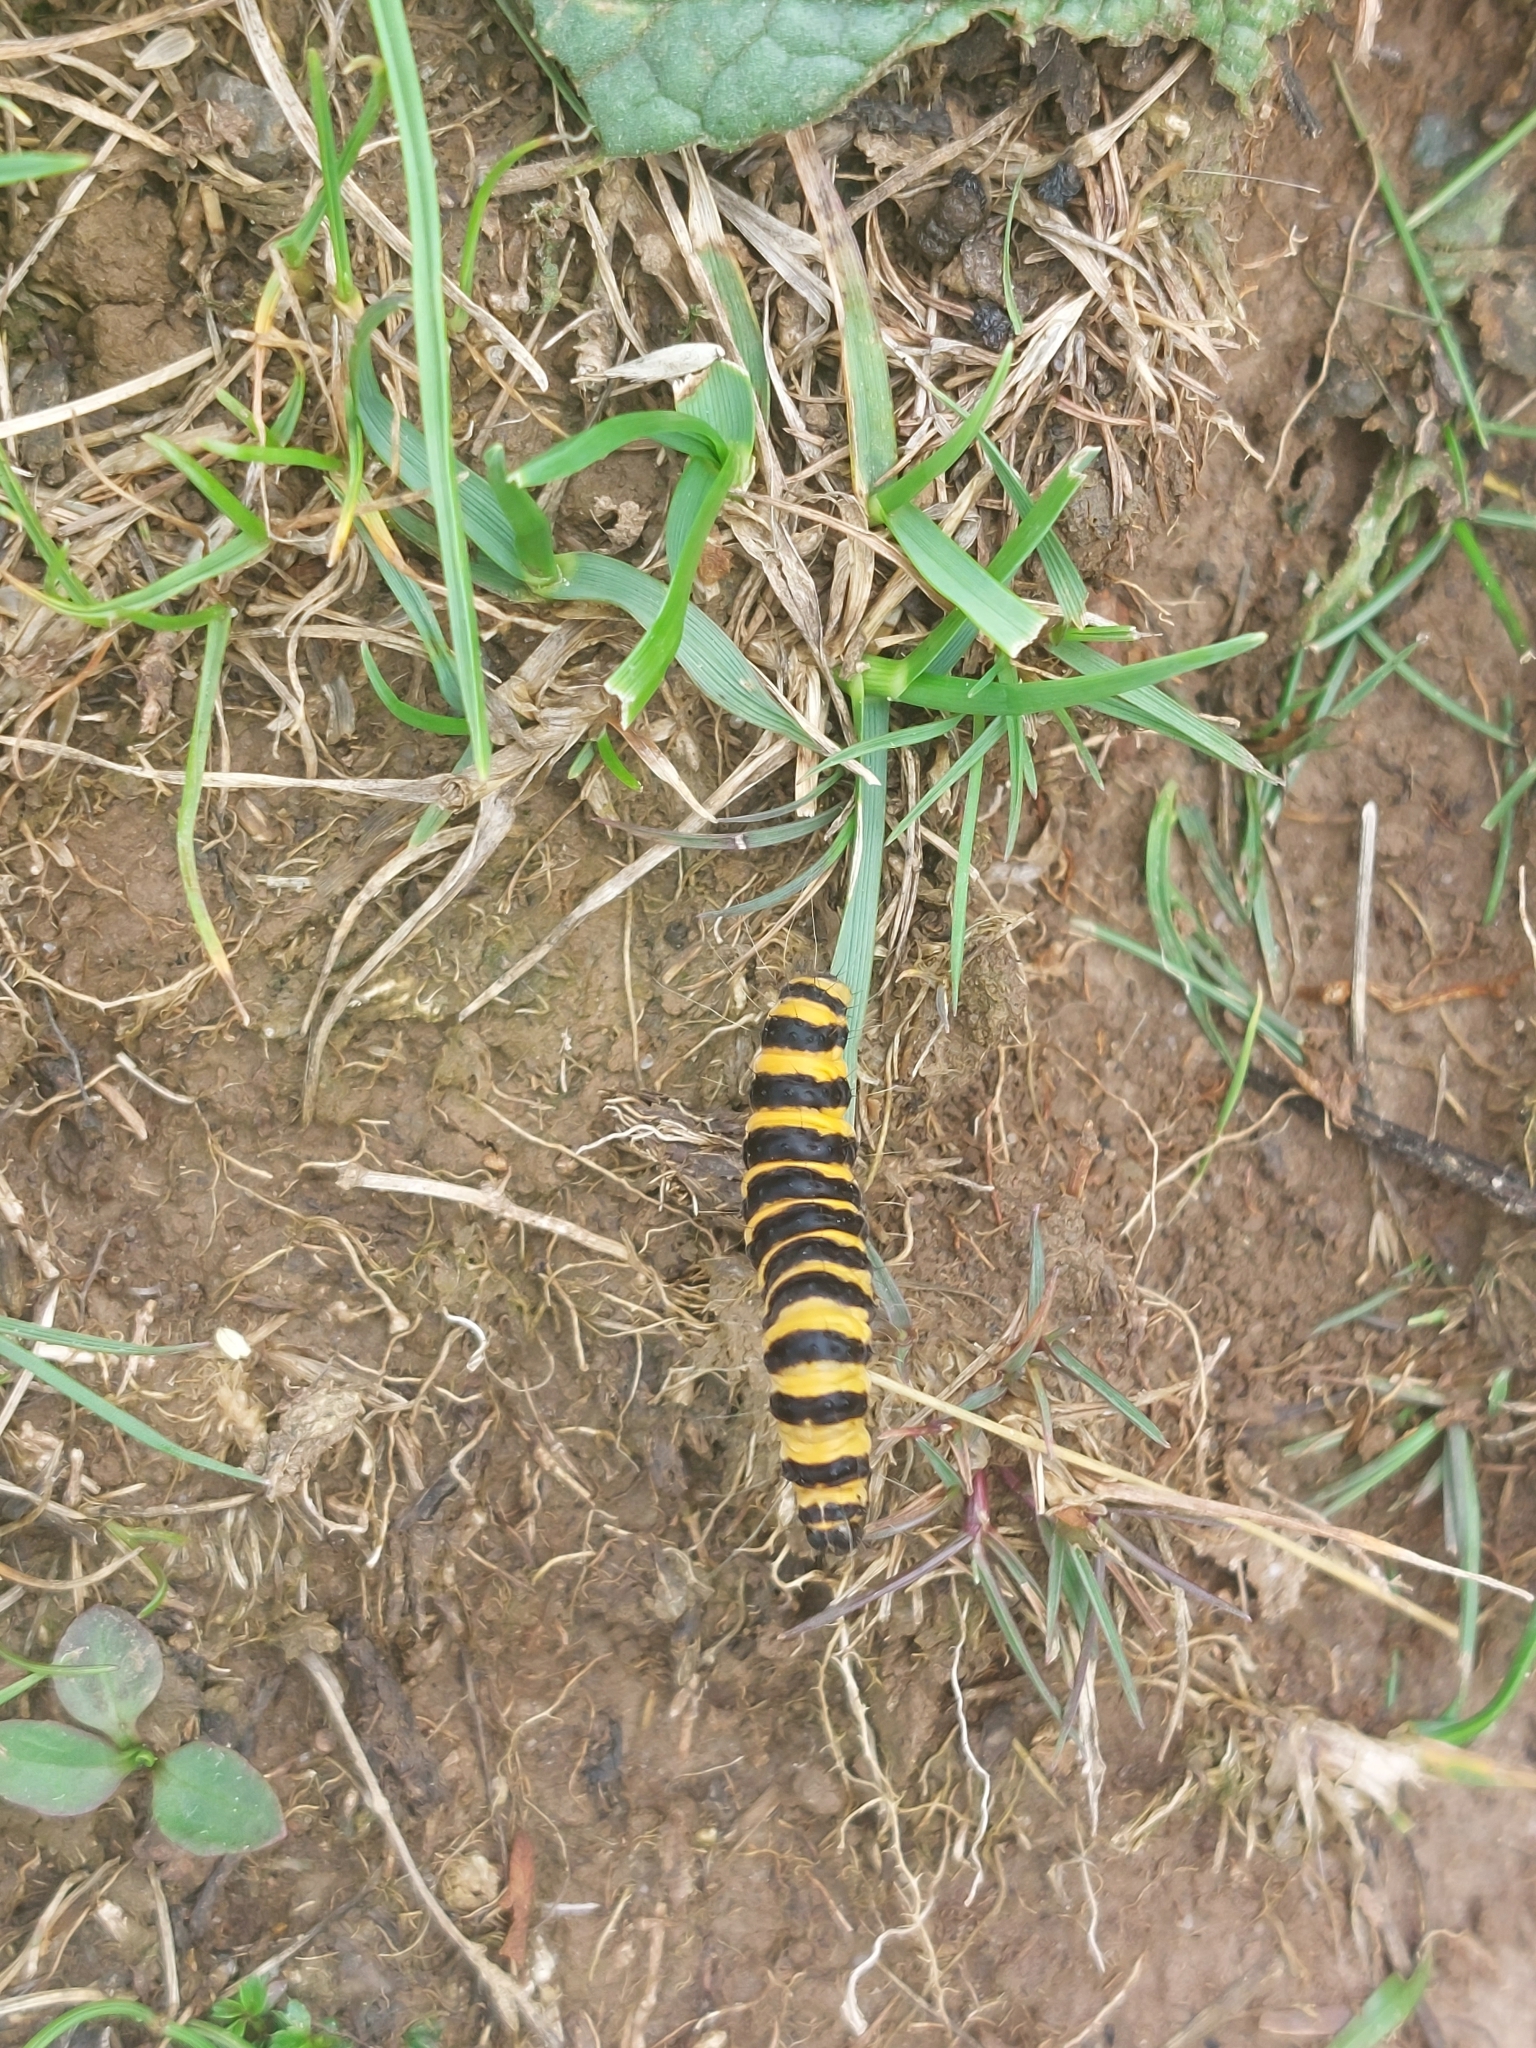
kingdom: Animalia
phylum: Arthropoda
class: Insecta
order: Lepidoptera
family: Erebidae
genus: Tyria
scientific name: Tyria jacobaeae
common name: Cinnabar
